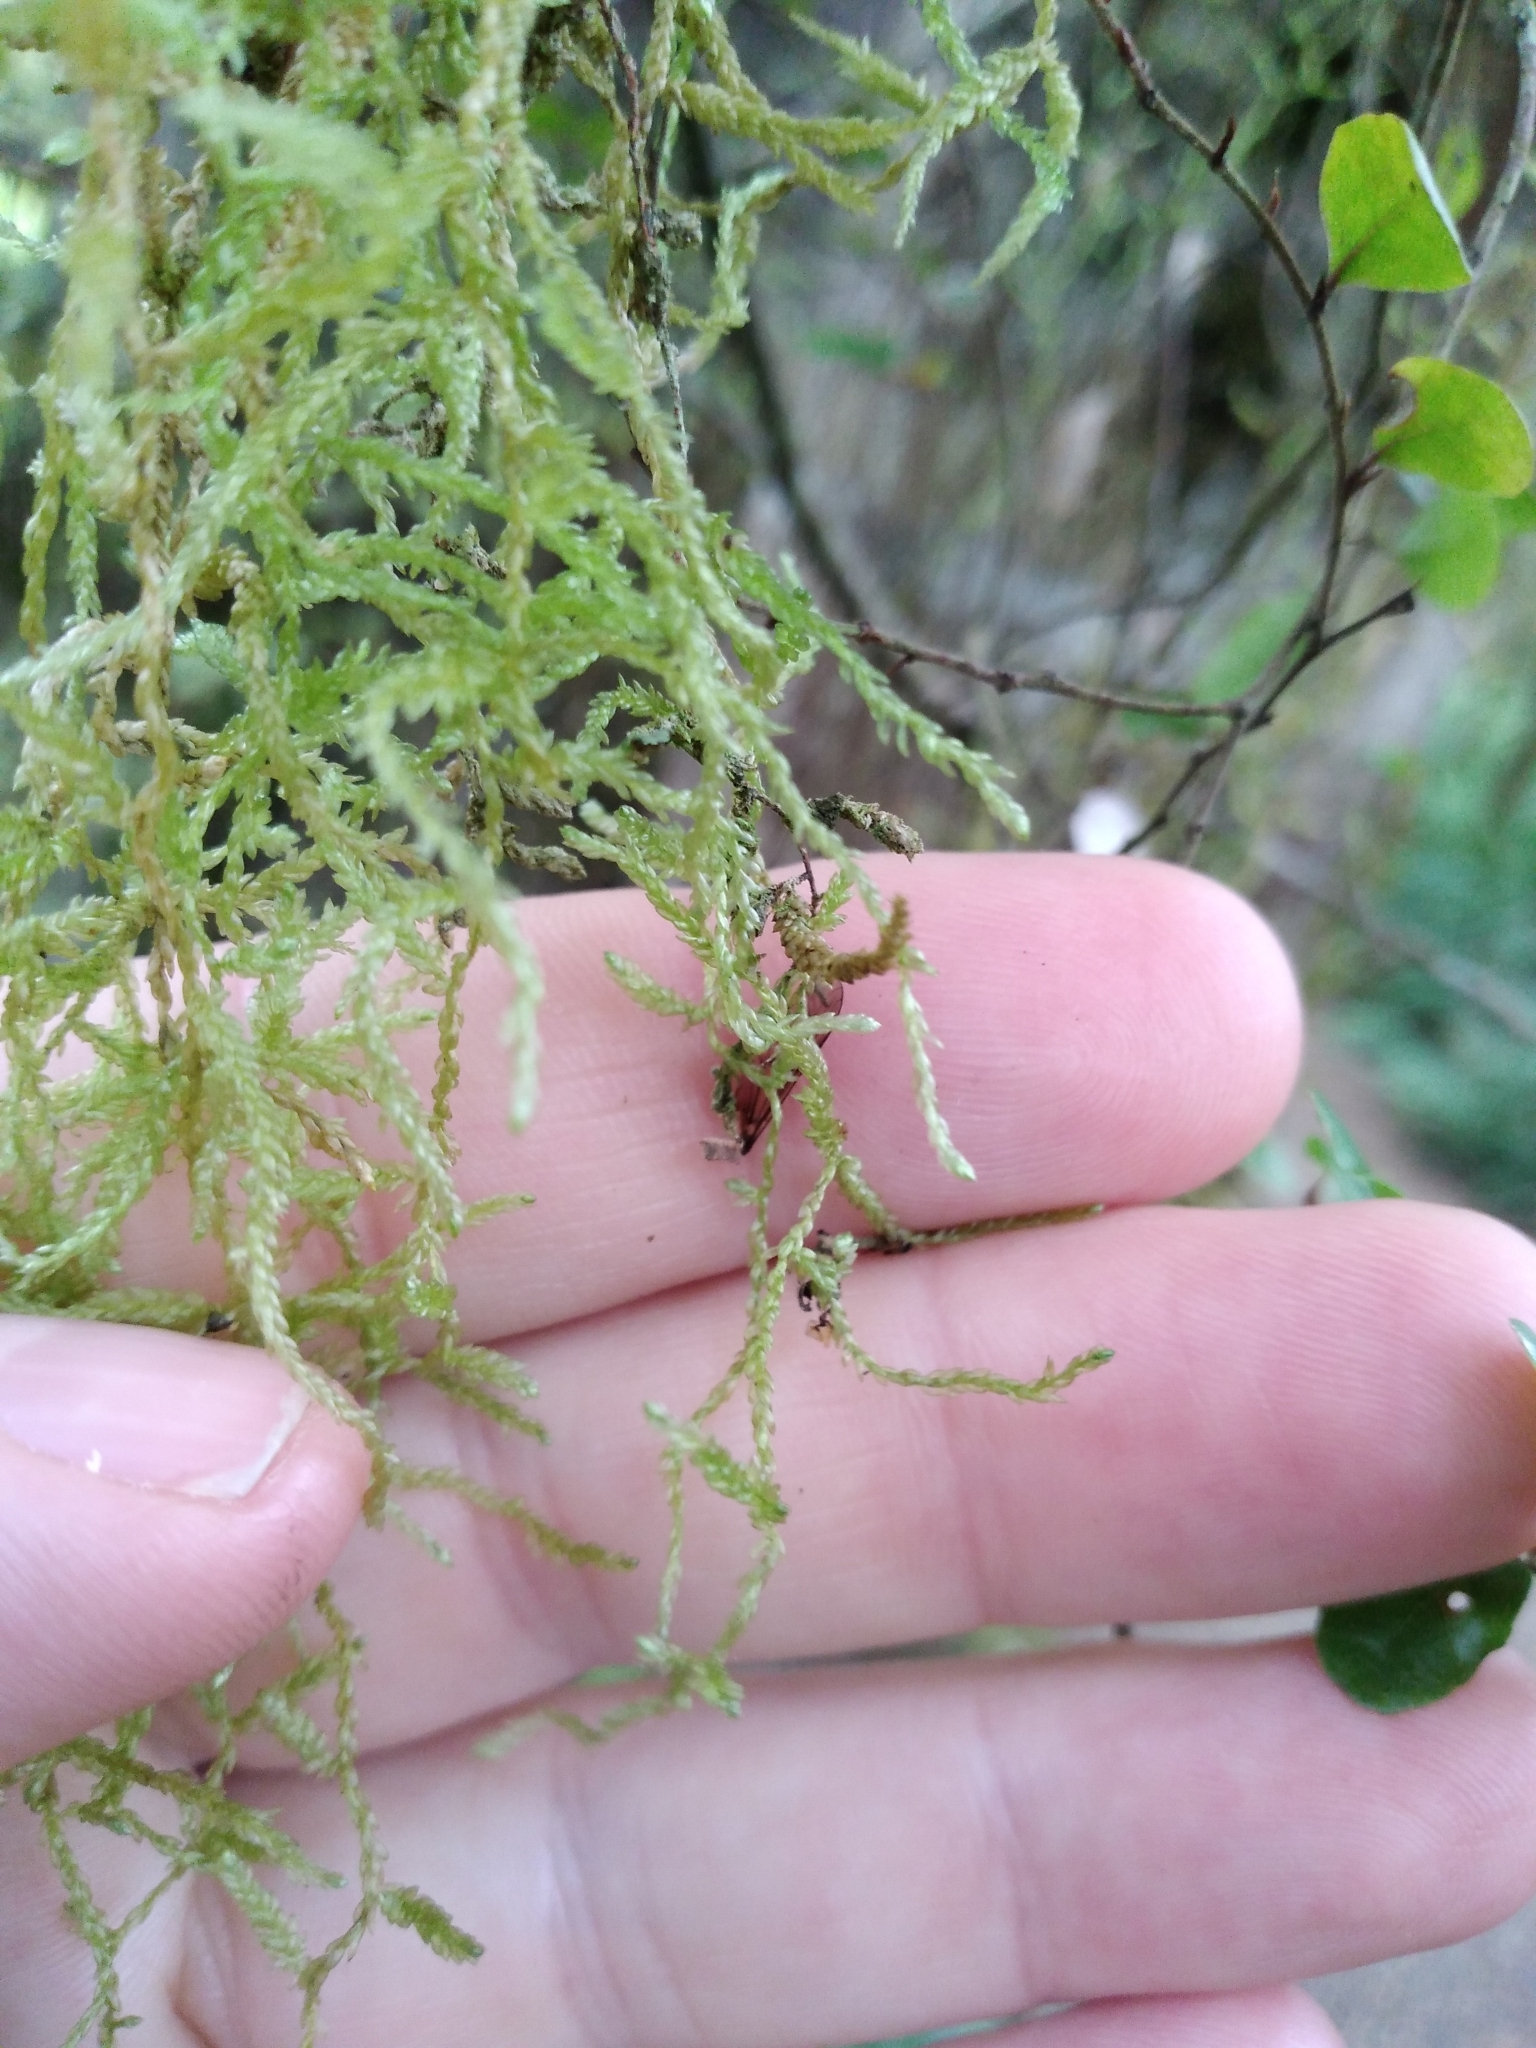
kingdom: Plantae
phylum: Bryophyta
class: Bryopsida
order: Hypnales
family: Lembophyllaceae
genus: Weymouthia
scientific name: Weymouthia mollis
